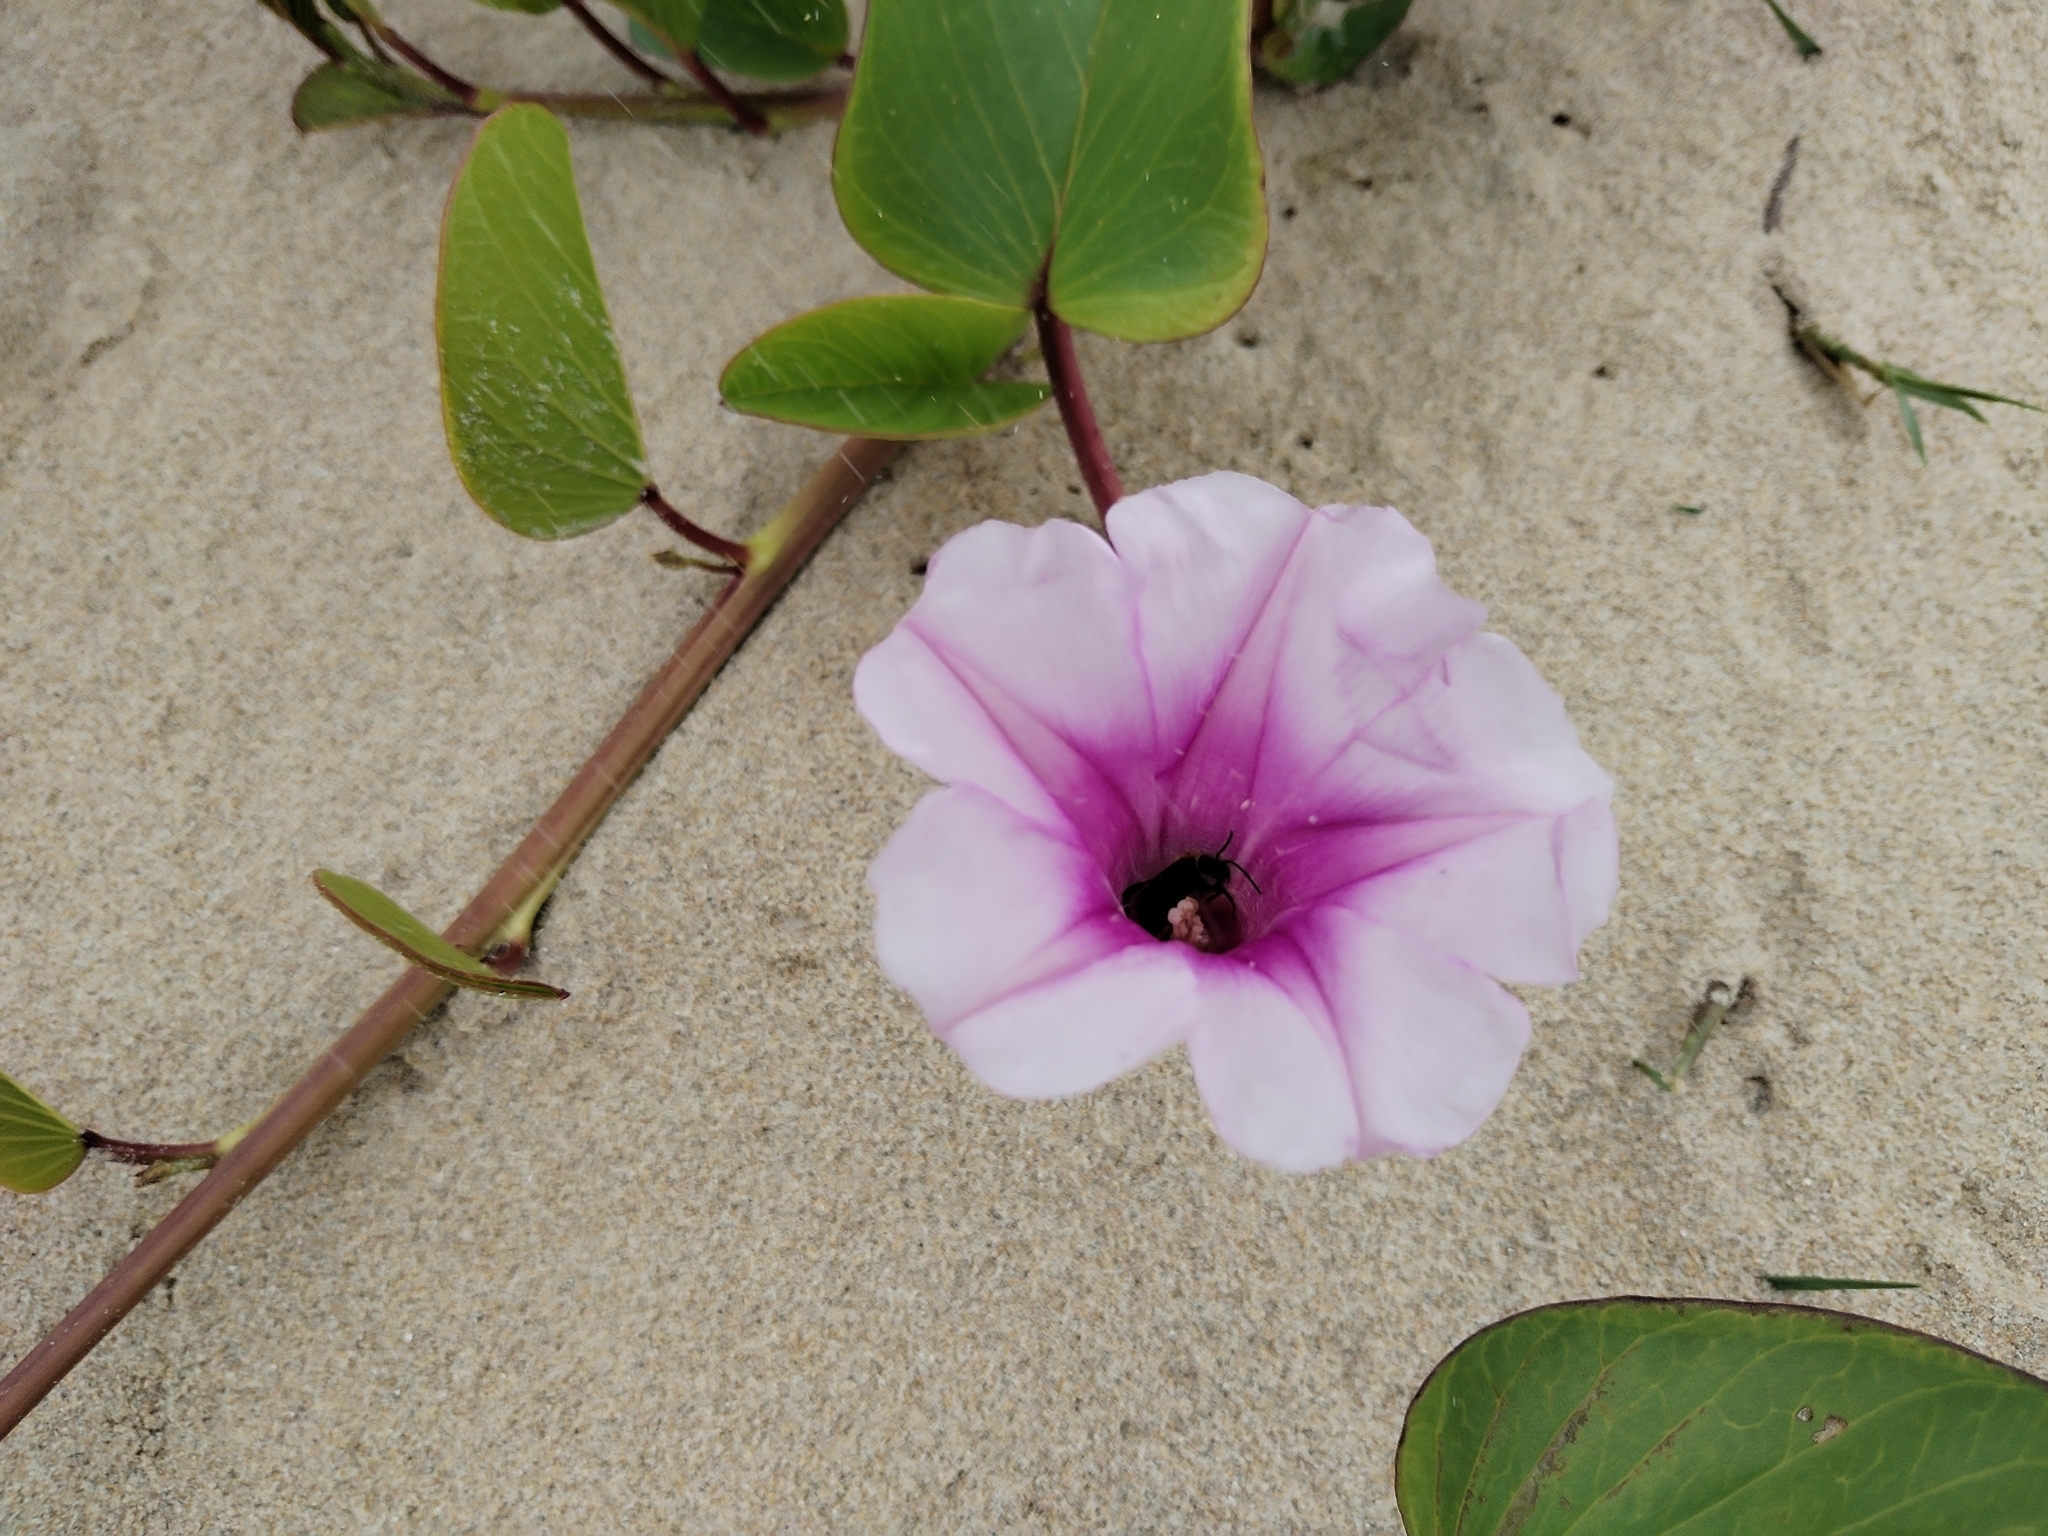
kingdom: Plantae
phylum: Tracheophyta
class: Magnoliopsida
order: Solanales
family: Convolvulaceae
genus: Ipomoea
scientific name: Ipomoea pes-caprae
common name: Beach morning glory
